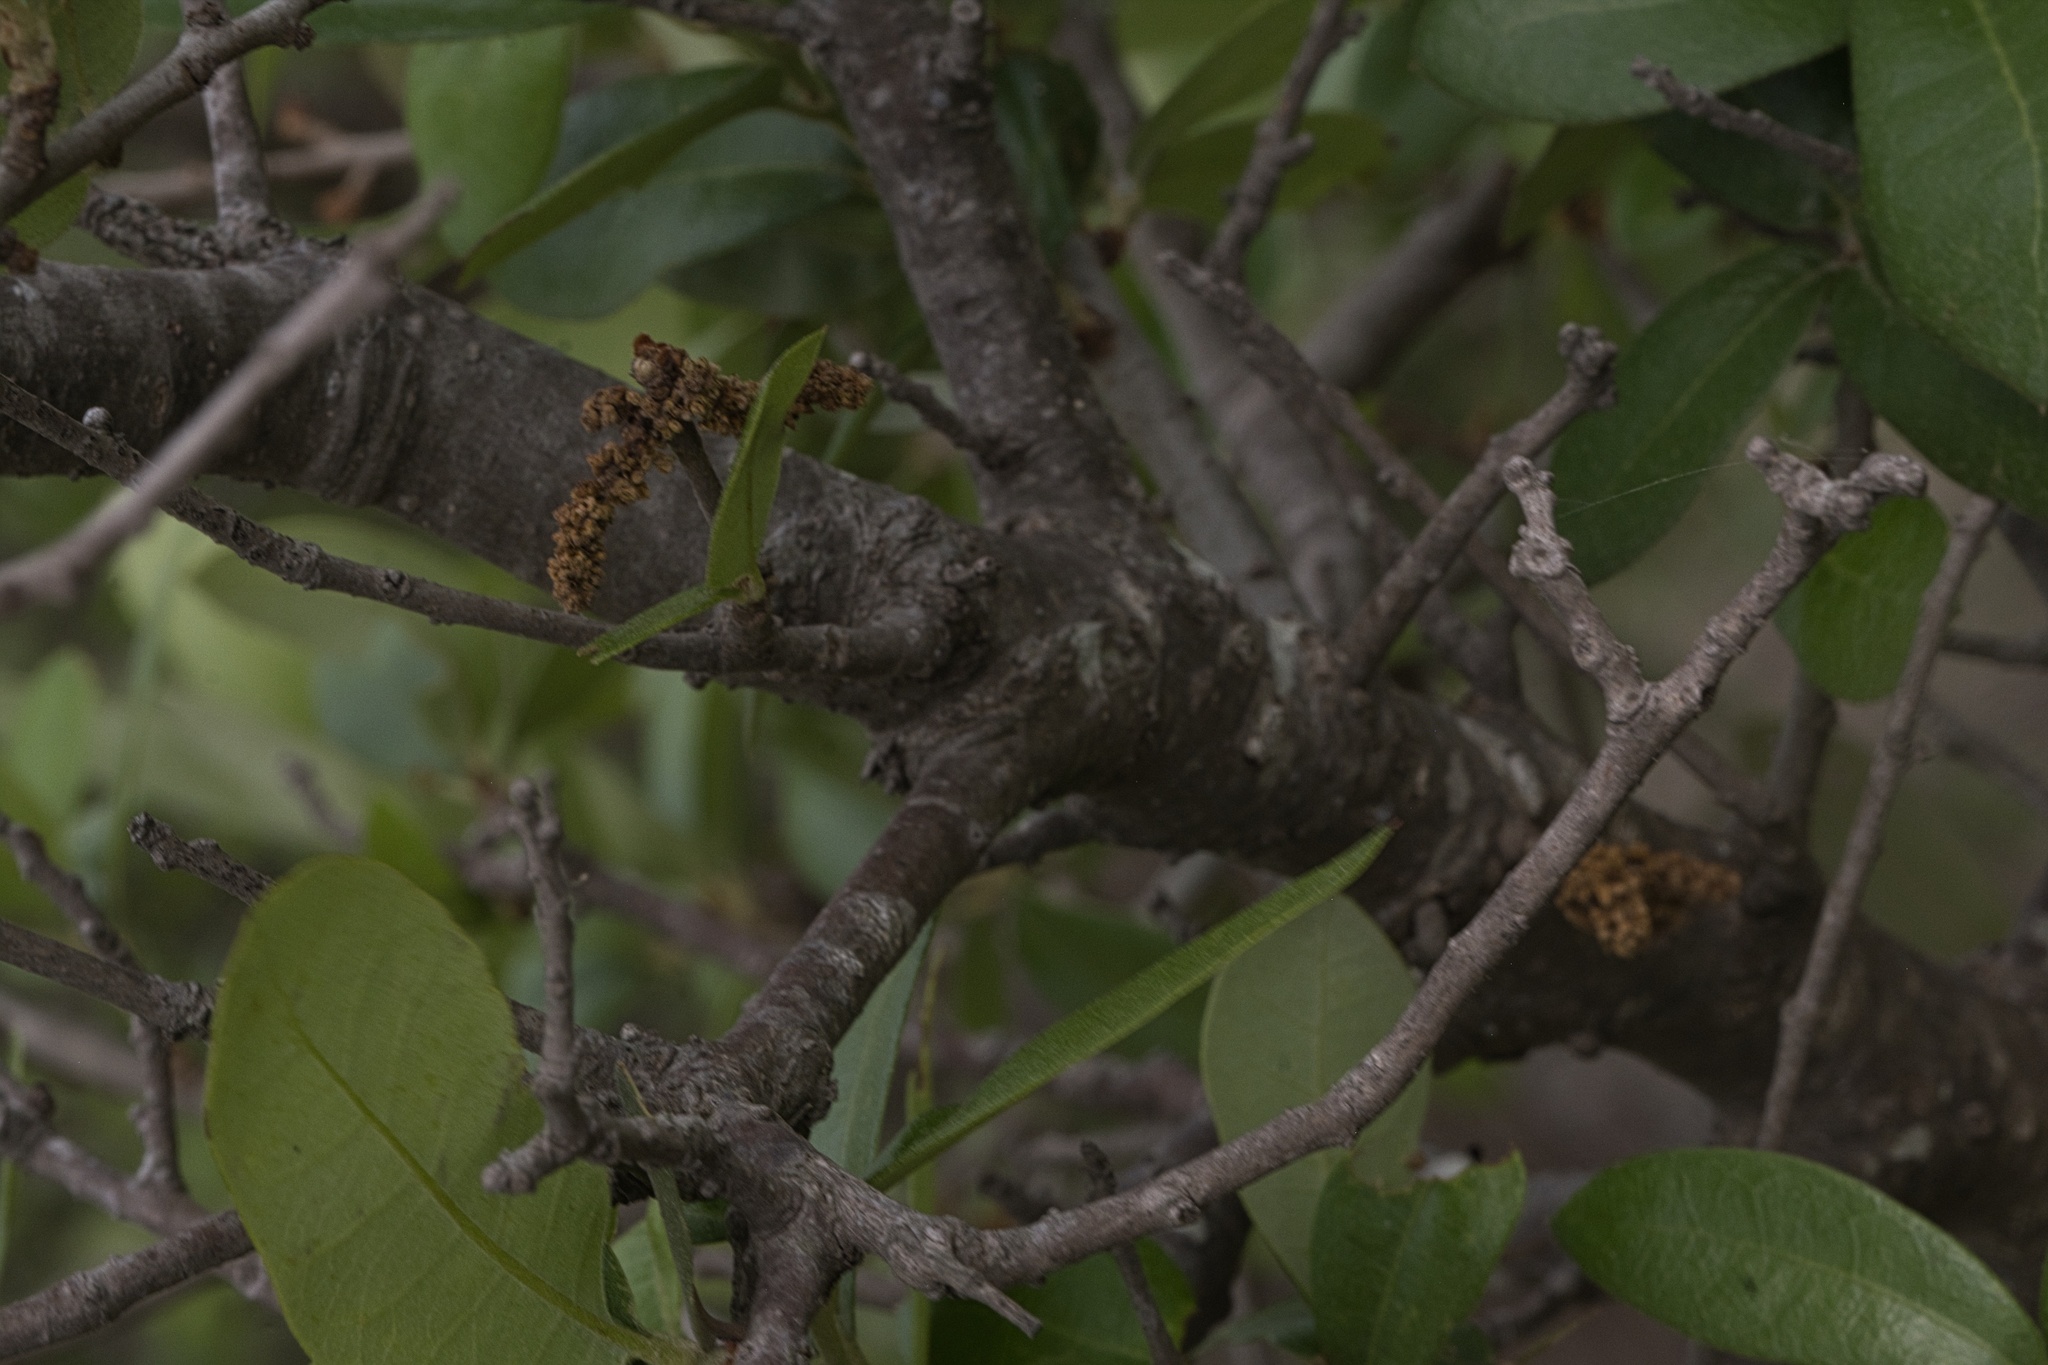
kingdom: Plantae
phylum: Tracheophyta
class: Magnoliopsida
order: Fagales
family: Fagaceae
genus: Quercus
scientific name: Quercus fusiformis
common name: Texas live oak
